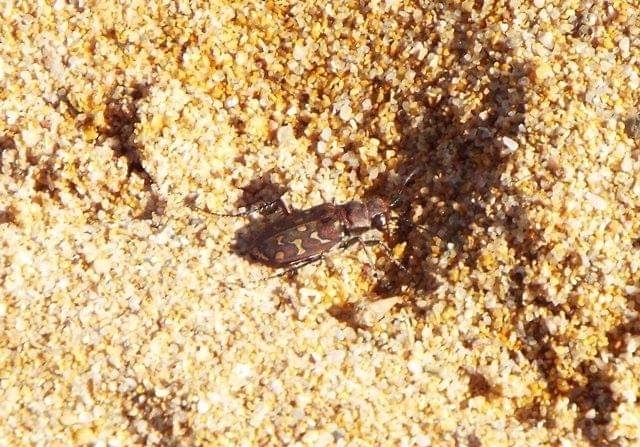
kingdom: Animalia
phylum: Arthropoda
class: Insecta
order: Coleoptera
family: Carabidae
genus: Lophyra
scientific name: Lophyra flexuosa
